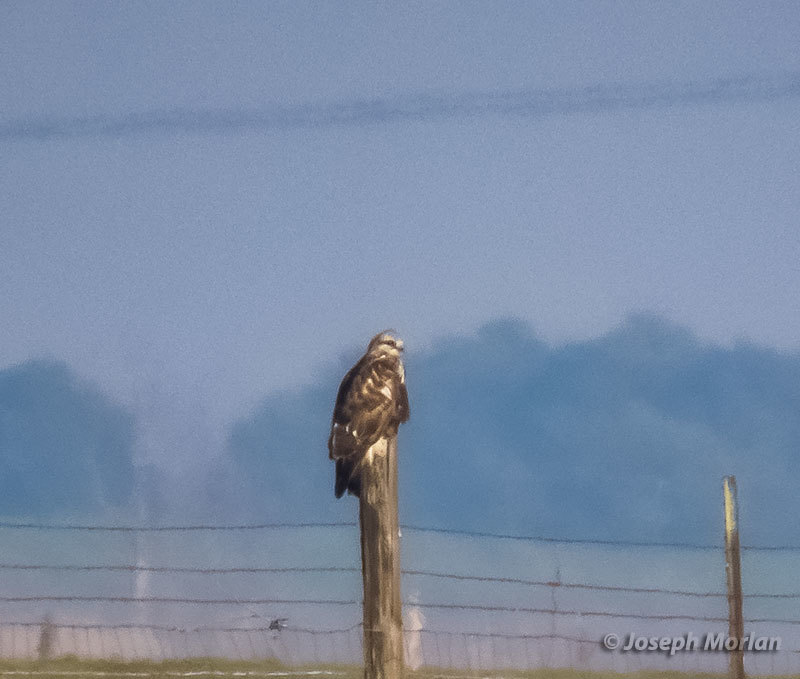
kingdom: Animalia
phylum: Chordata
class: Aves
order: Accipitriformes
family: Accipitridae
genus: Buteo
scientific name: Buteo lagopus
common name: Rough-legged buzzard
